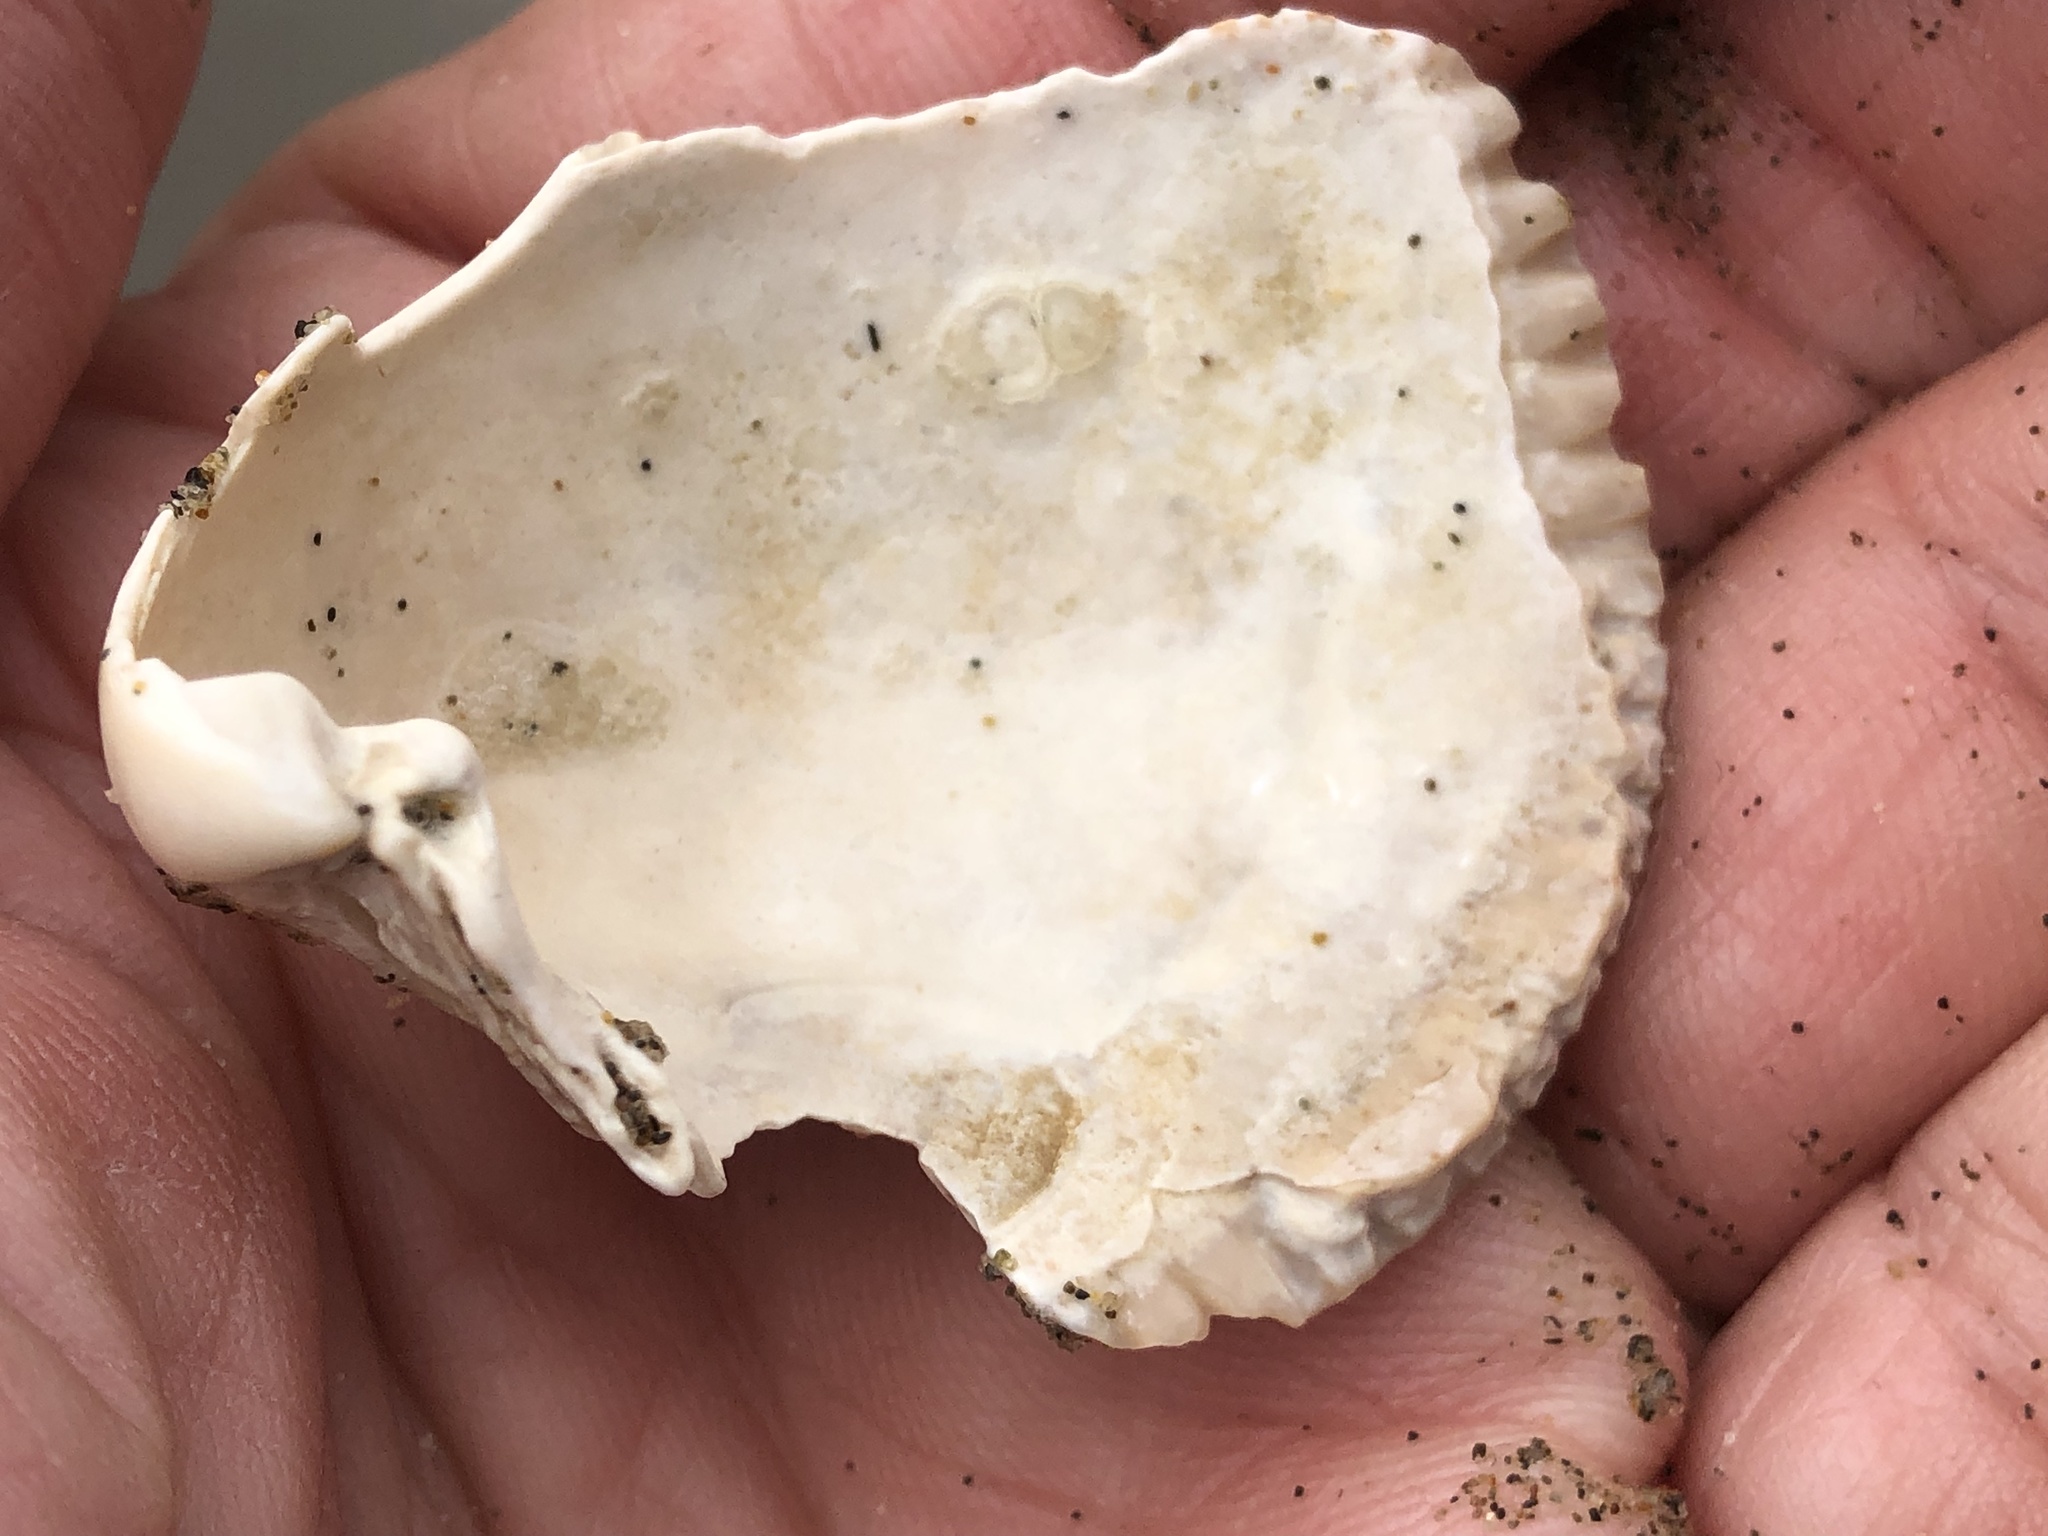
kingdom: Animalia
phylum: Mollusca
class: Bivalvia
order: Cardiida
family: Cardiidae
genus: Clinocardium
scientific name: Clinocardium nuttallii
